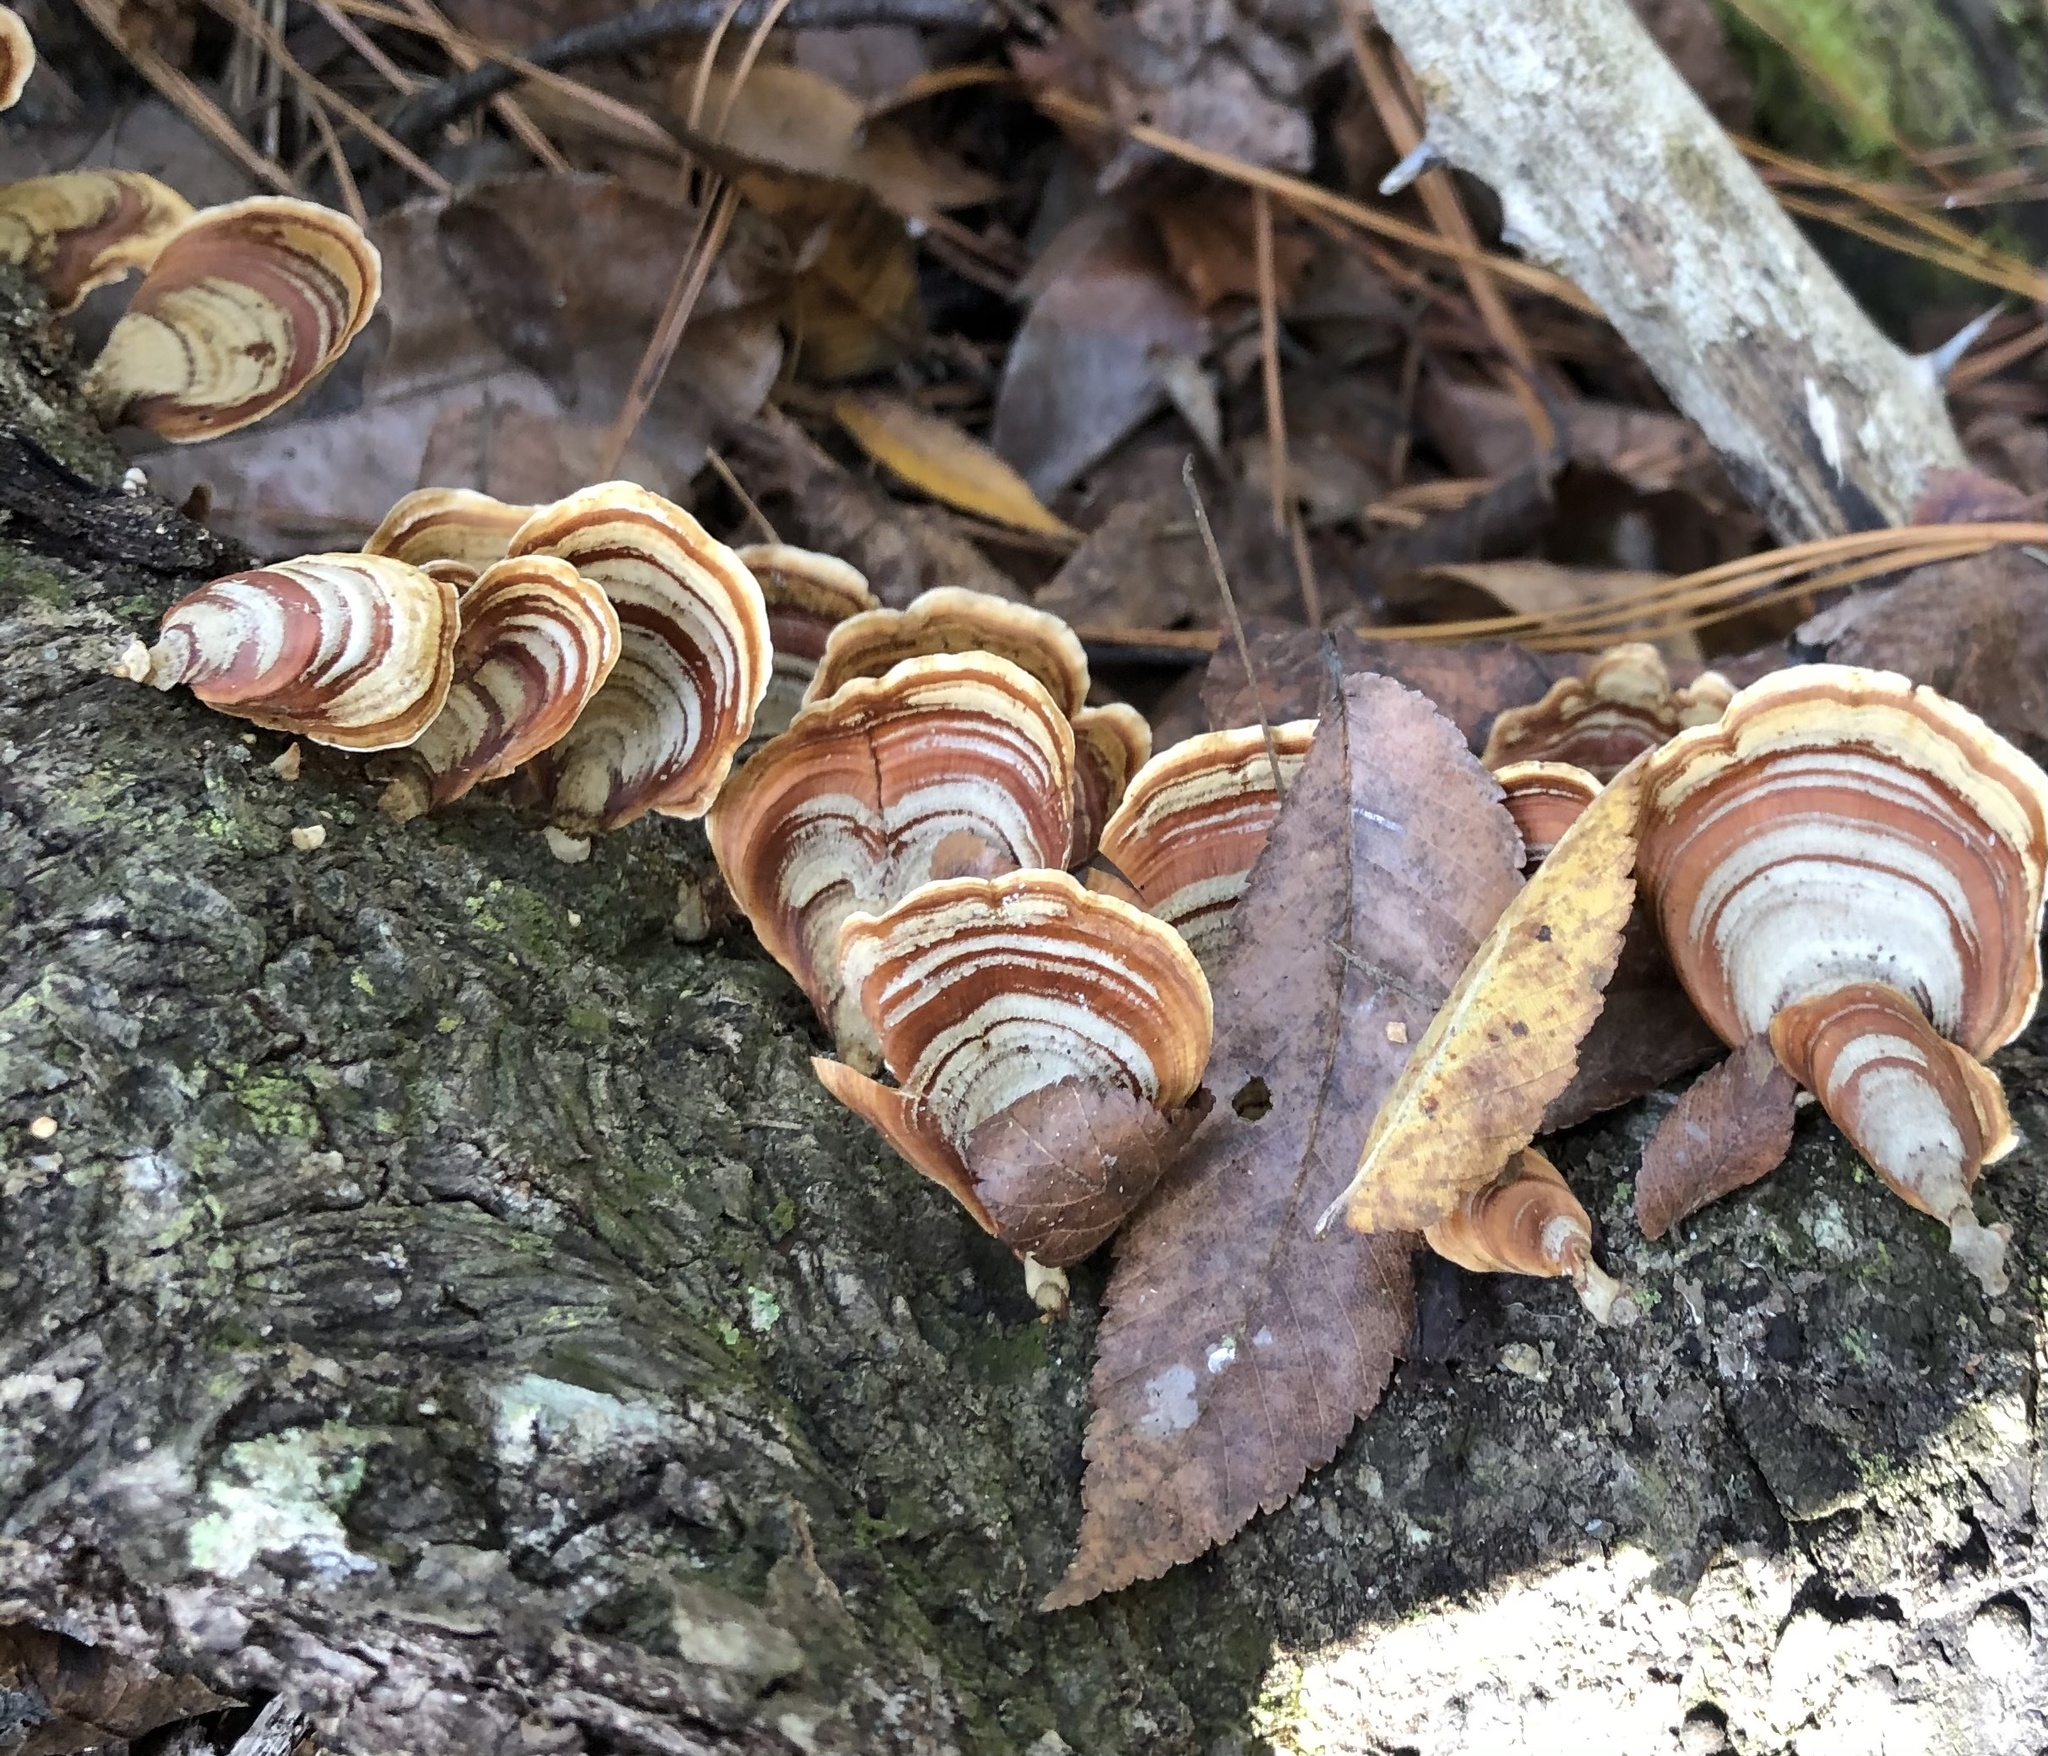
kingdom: Fungi
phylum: Basidiomycota
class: Agaricomycetes
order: Russulales
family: Stereaceae
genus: Stereum
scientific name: Stereum ostrea
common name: False turkeytail
